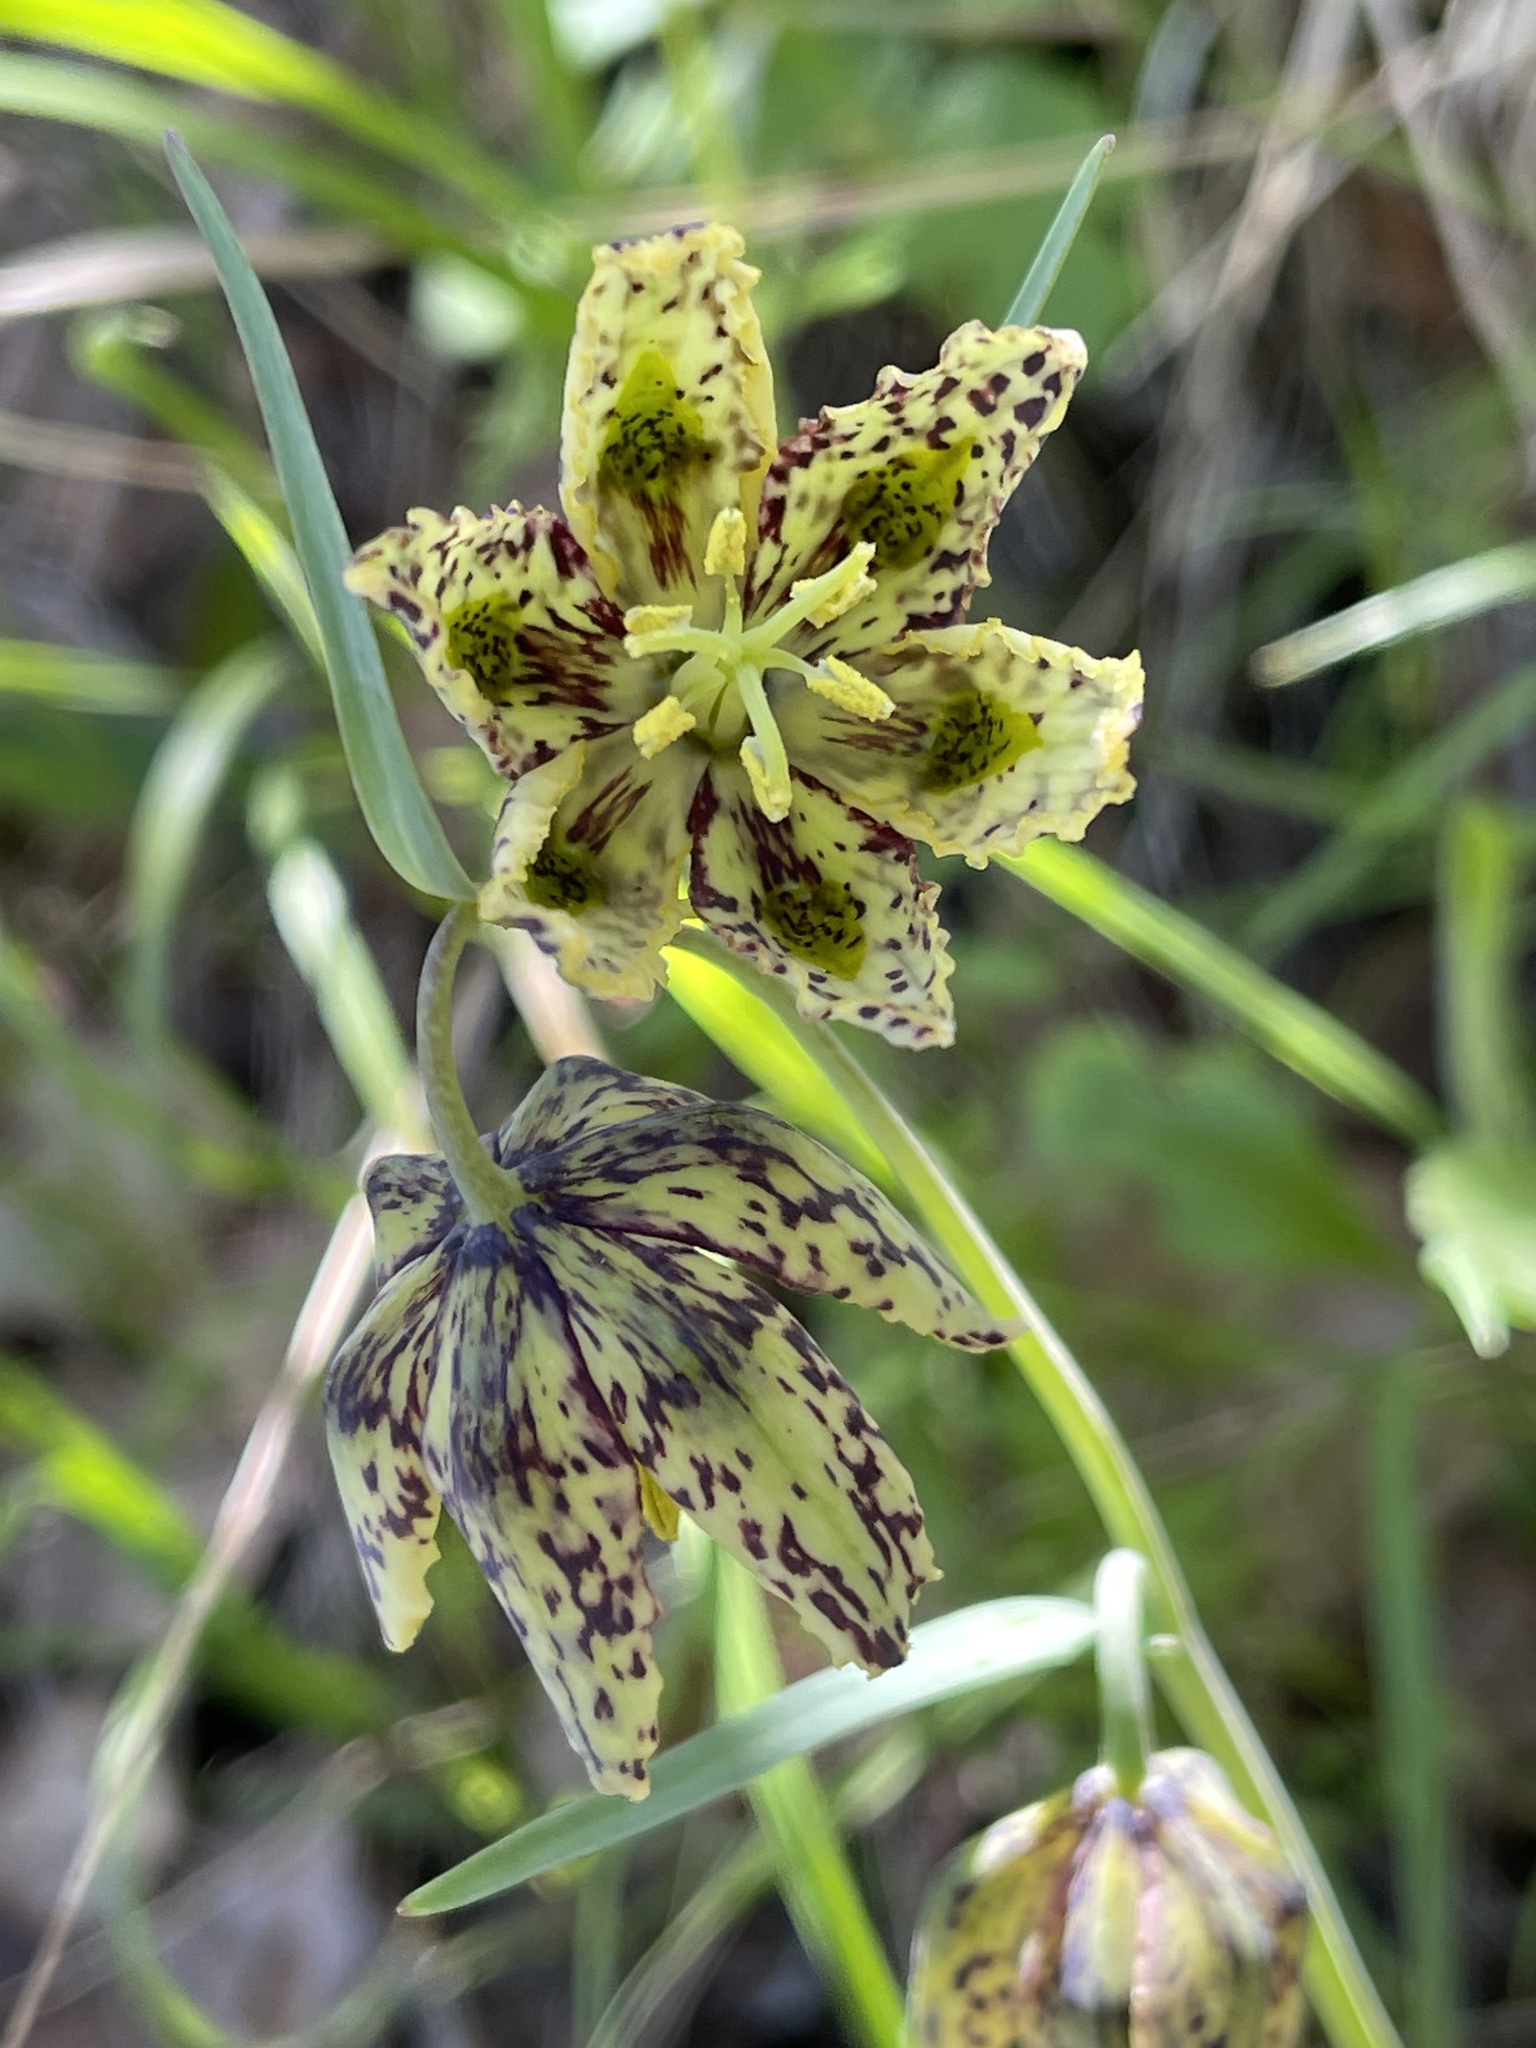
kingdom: Plantae
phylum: Tracheophyta
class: Liliopsida
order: Liliales
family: Liliaceae
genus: Fritillaria
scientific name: Fritillaria affinis
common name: Ojai fritillary
